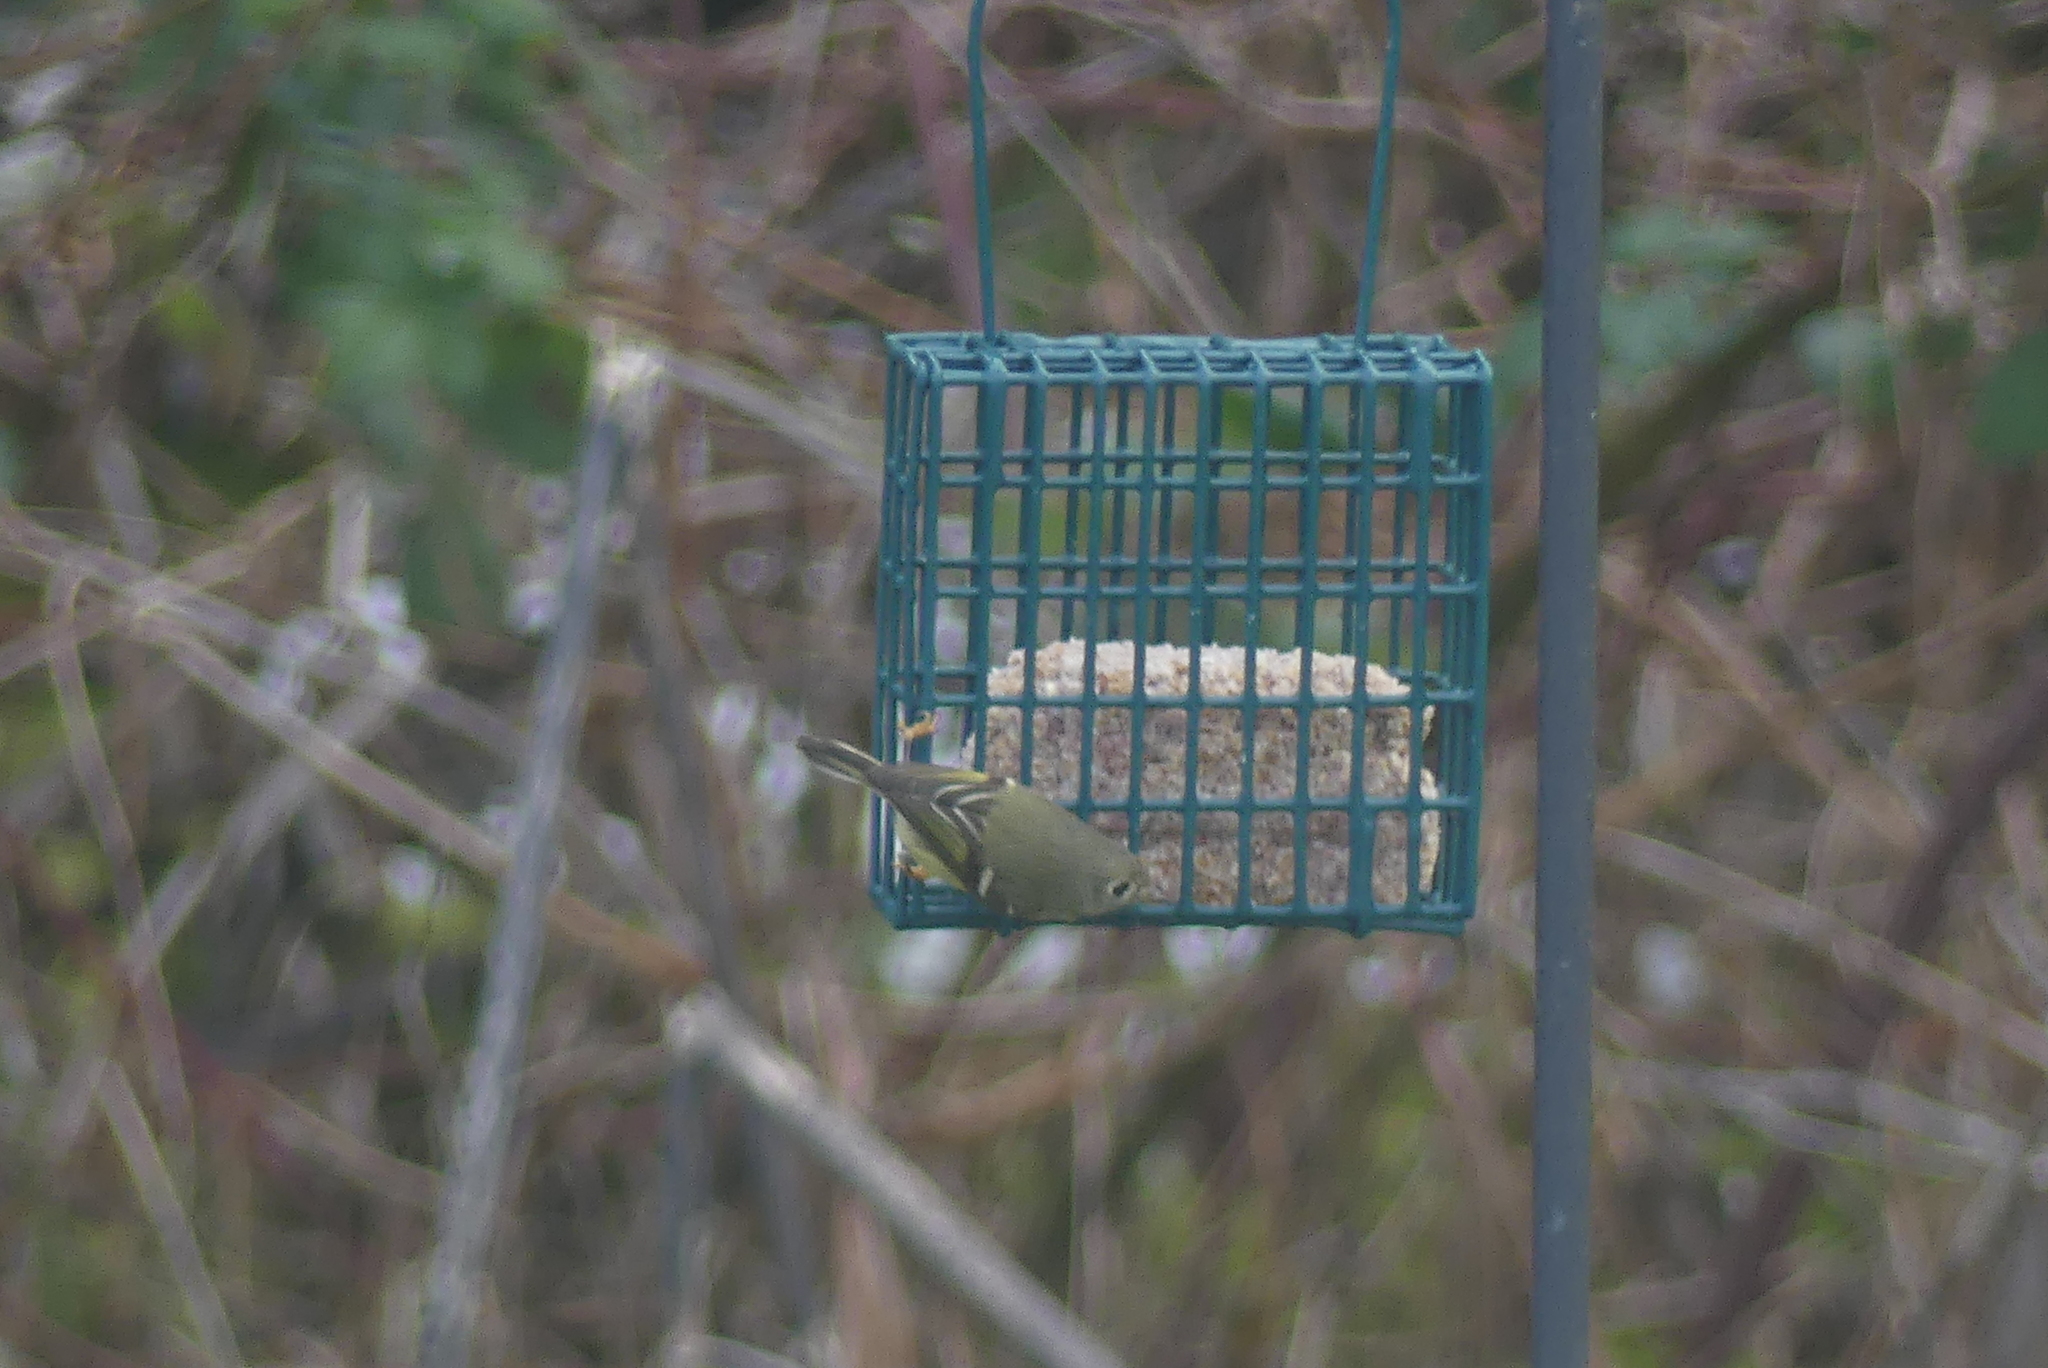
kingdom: Animalia
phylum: Chordata
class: Aves
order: Passeriformes
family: Regulidae
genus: Regulus
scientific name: Regulus calendula
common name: Ruby-crowned kinglet
